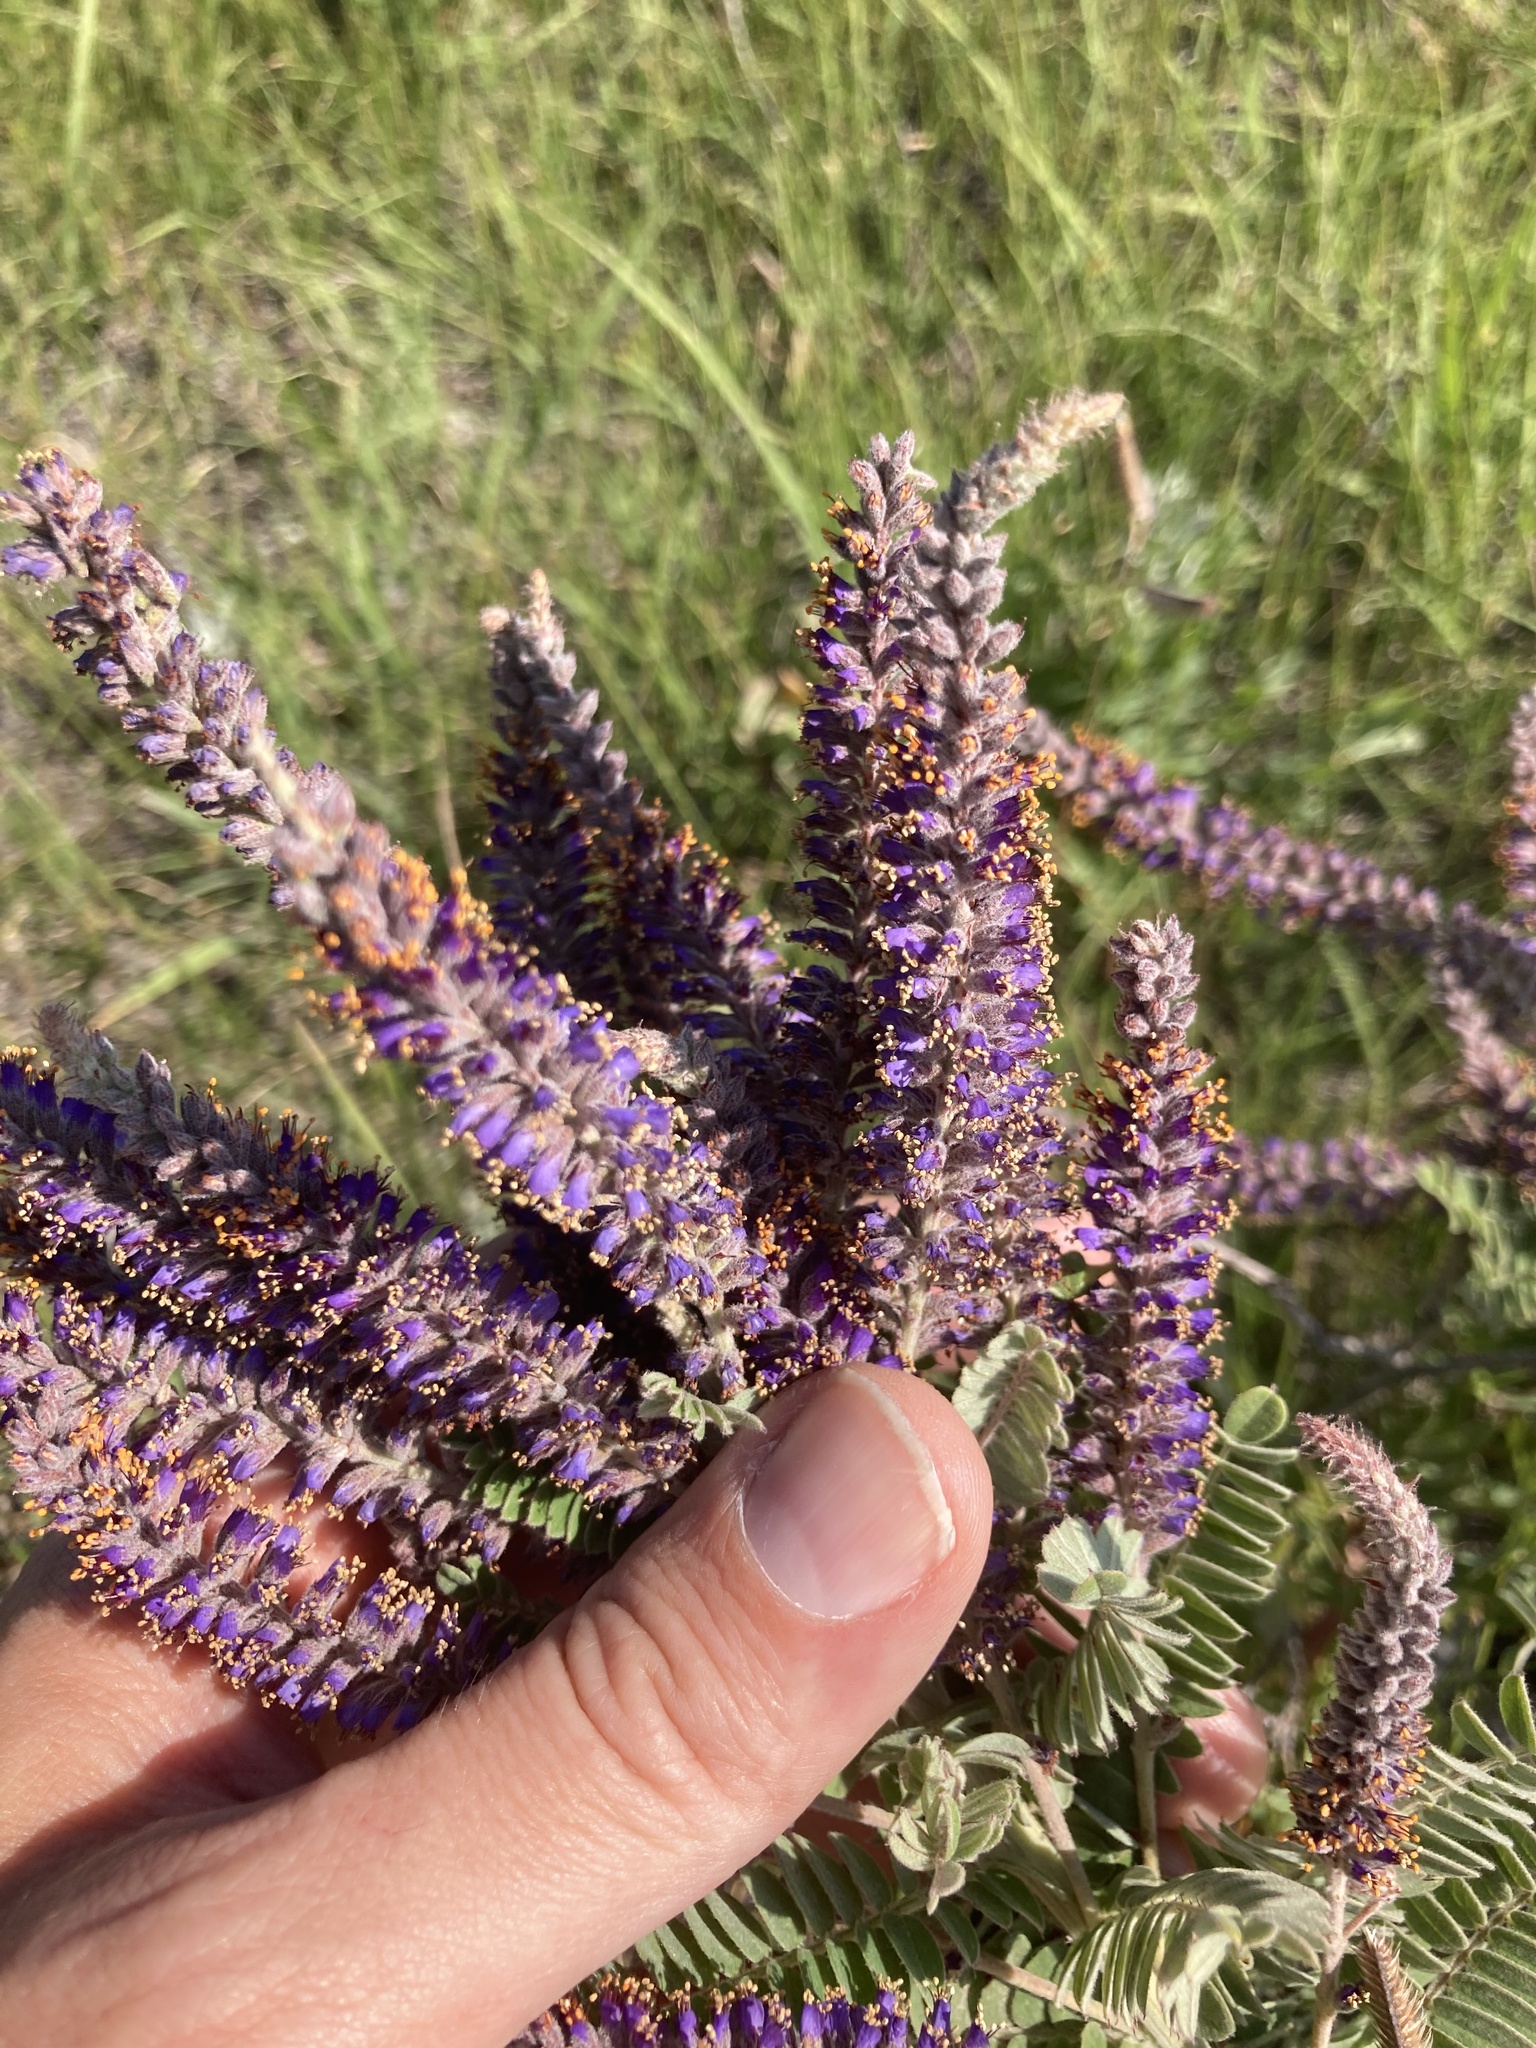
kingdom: Plantae
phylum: Tracheophyta
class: Magnoliopsida
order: Fabales
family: Fabaceae
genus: Amorpha
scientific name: Amorpha canescens
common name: Leadplant
